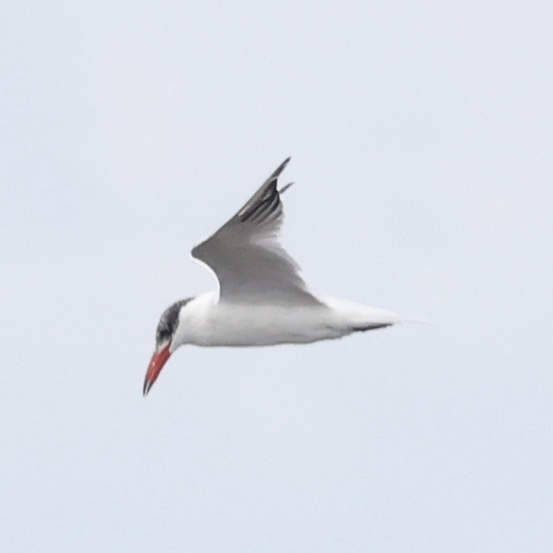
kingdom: Animalia
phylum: Chordata
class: Aves
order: Charadriiformes
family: Laridae
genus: Hydroprogne
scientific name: Hydroprogne caspia
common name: Caspian tern
